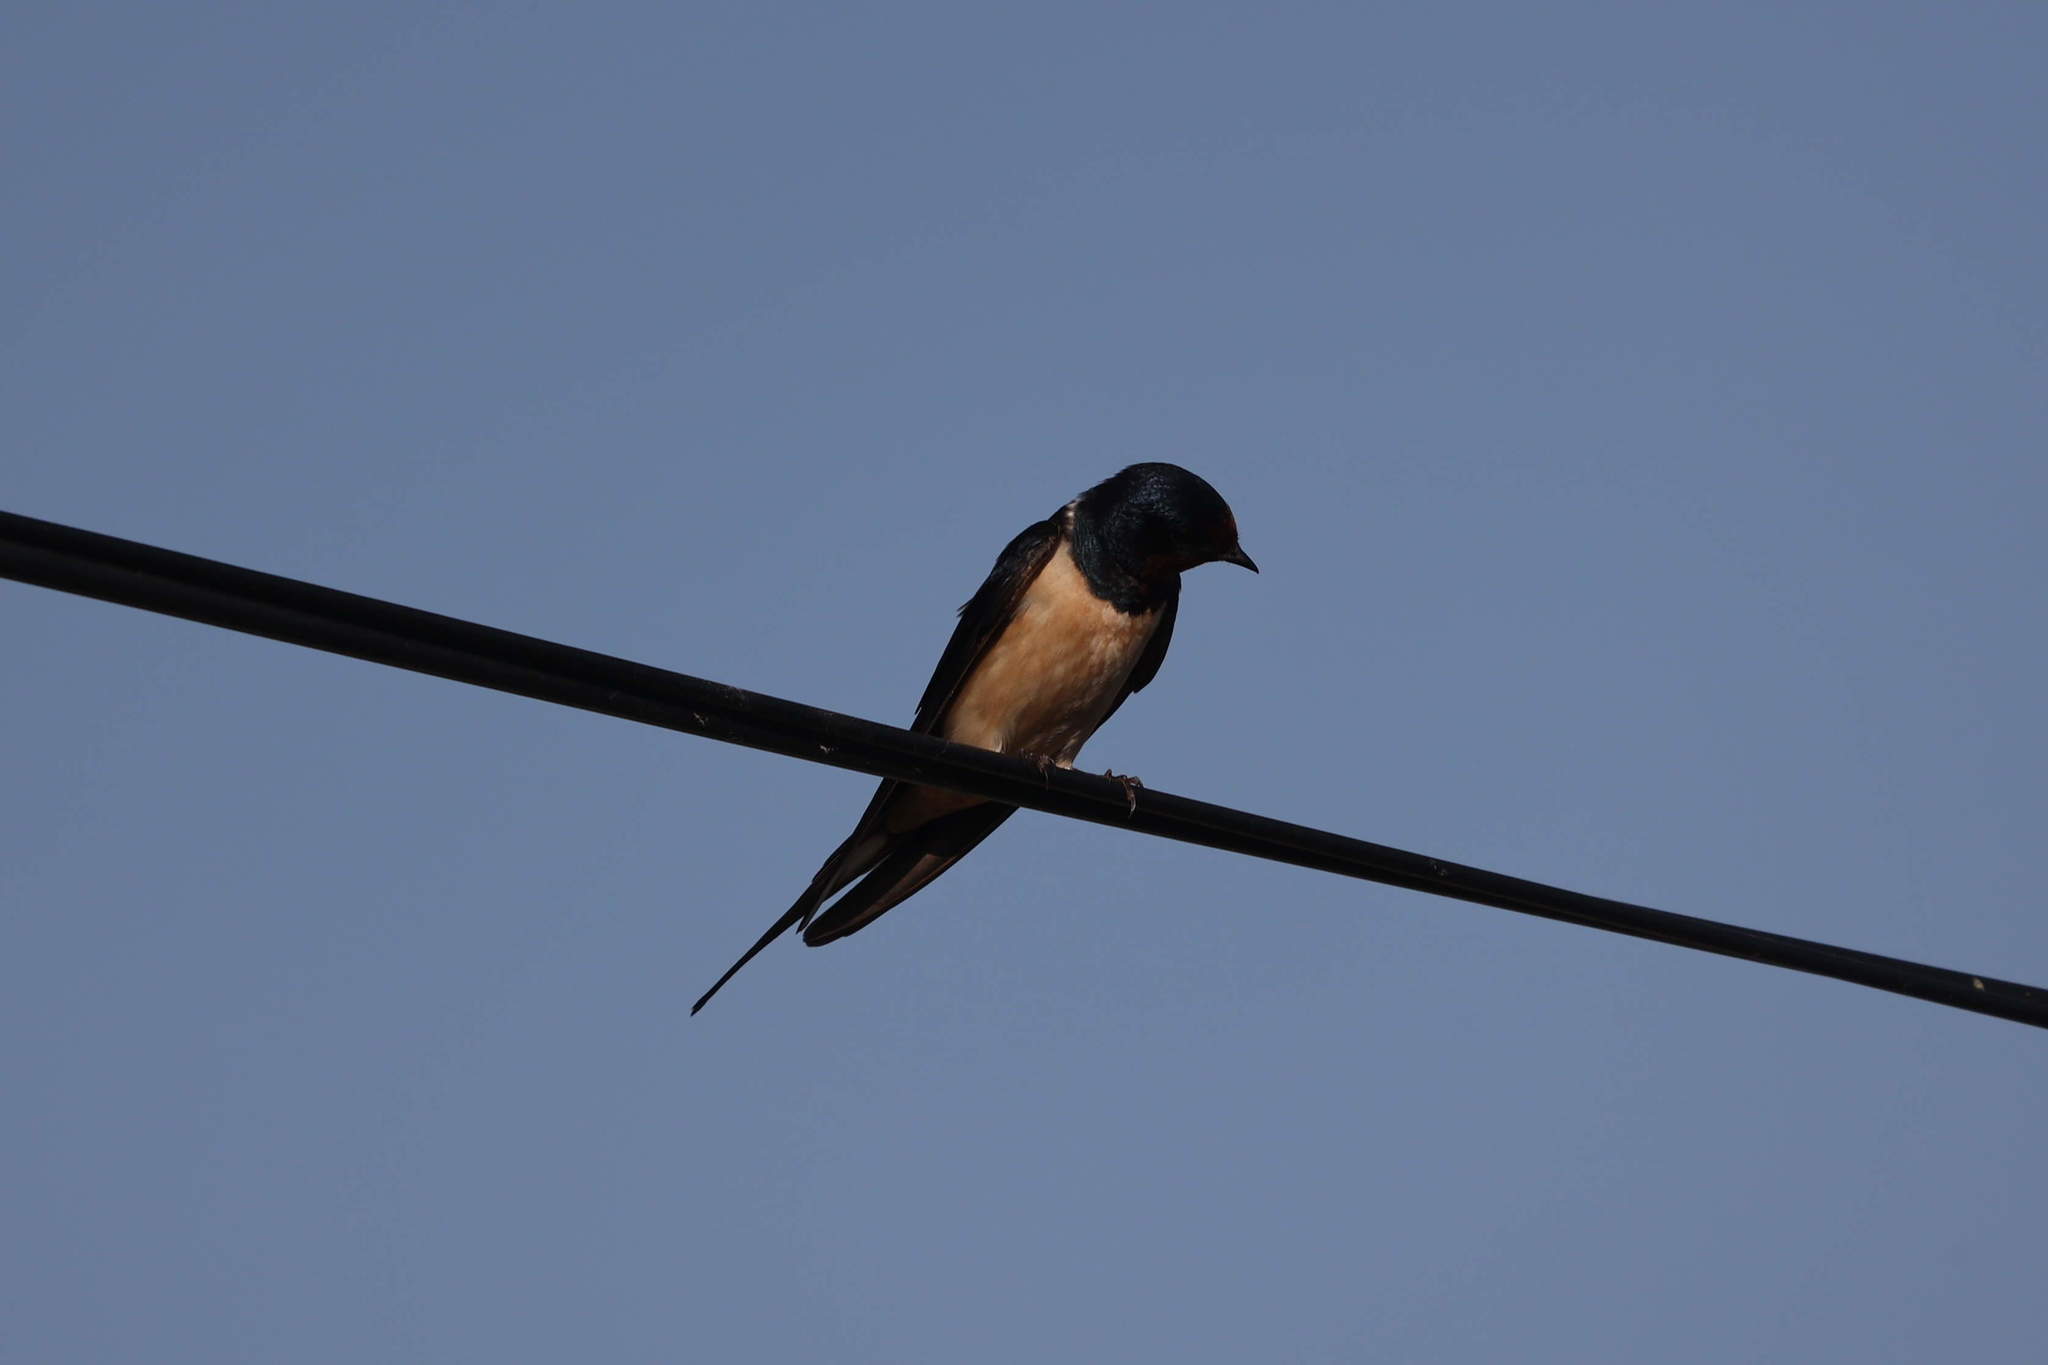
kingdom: Animalia
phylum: Chordata
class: Aves
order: Passeriformes
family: Hirundinidae
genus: Hirundo
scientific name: Hirundo rustica
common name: Barn swallow
